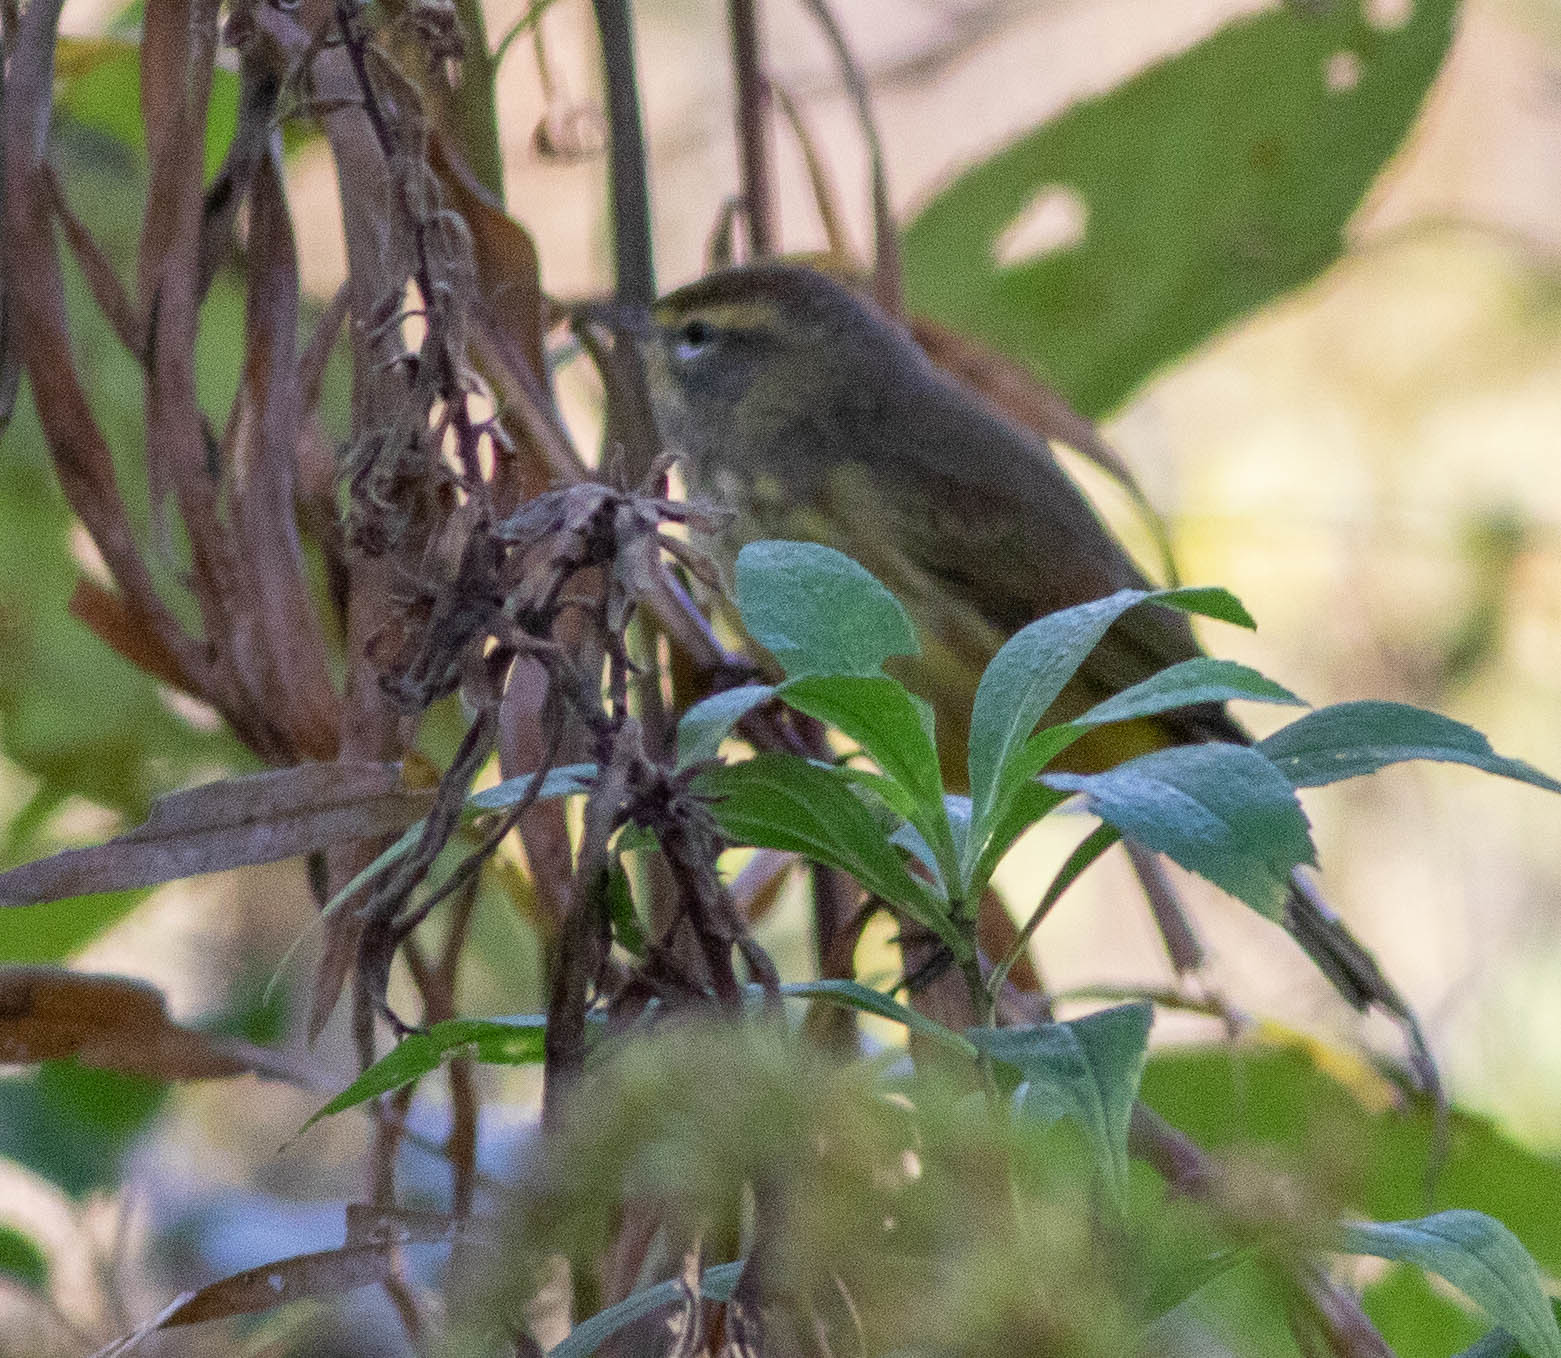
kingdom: Animalia
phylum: Chordata
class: Aves
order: Passeriformes
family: Parulidae
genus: Setophaga
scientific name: Setophaga palmarum
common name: Palm warbler
